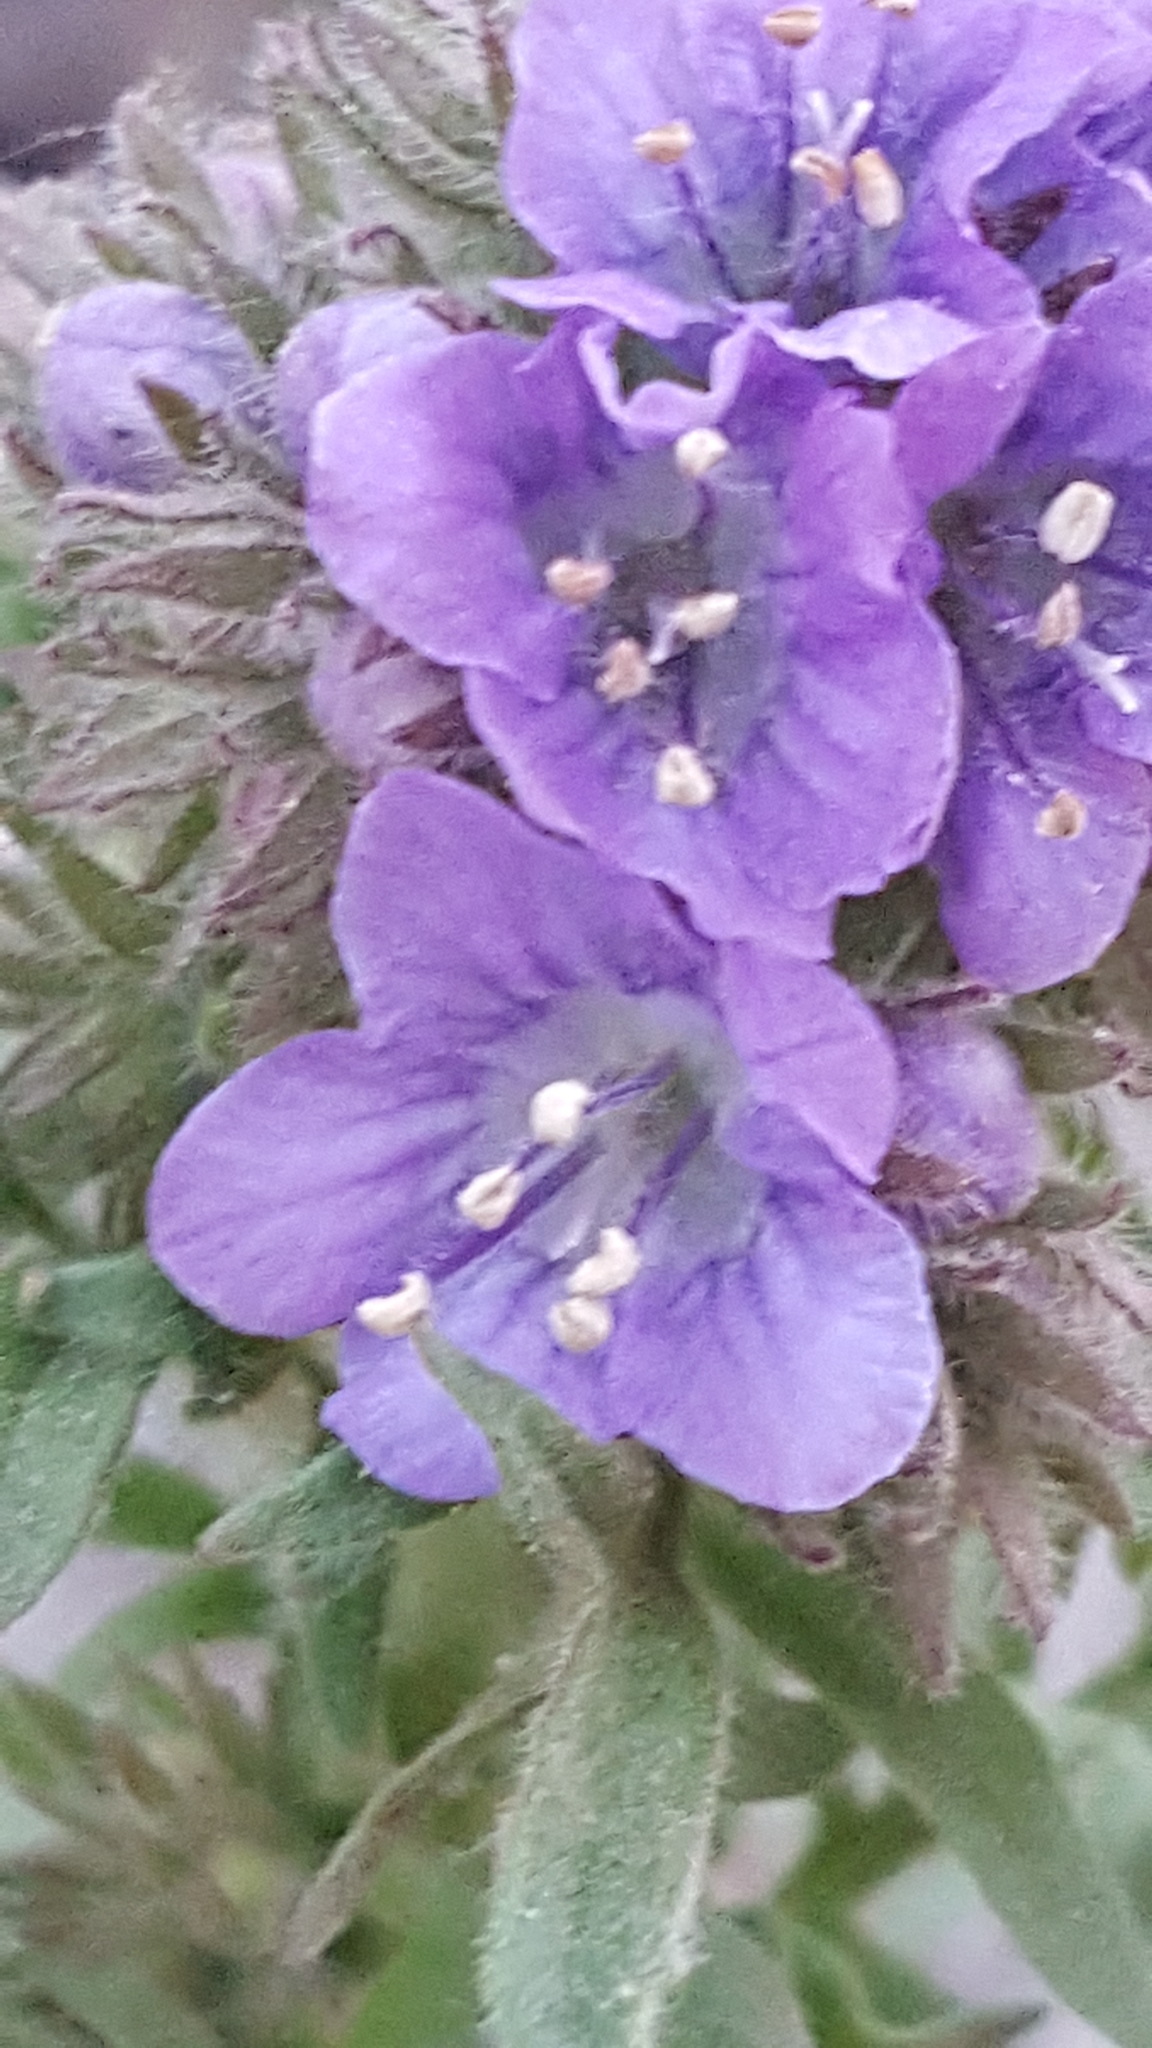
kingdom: Plantae
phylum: Tracheophyta
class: Magnoliopsida
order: Boraginales
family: Hydrophyllaceae
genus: Phacelia
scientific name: Phacelia franklinii
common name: Franklin's phacelia
